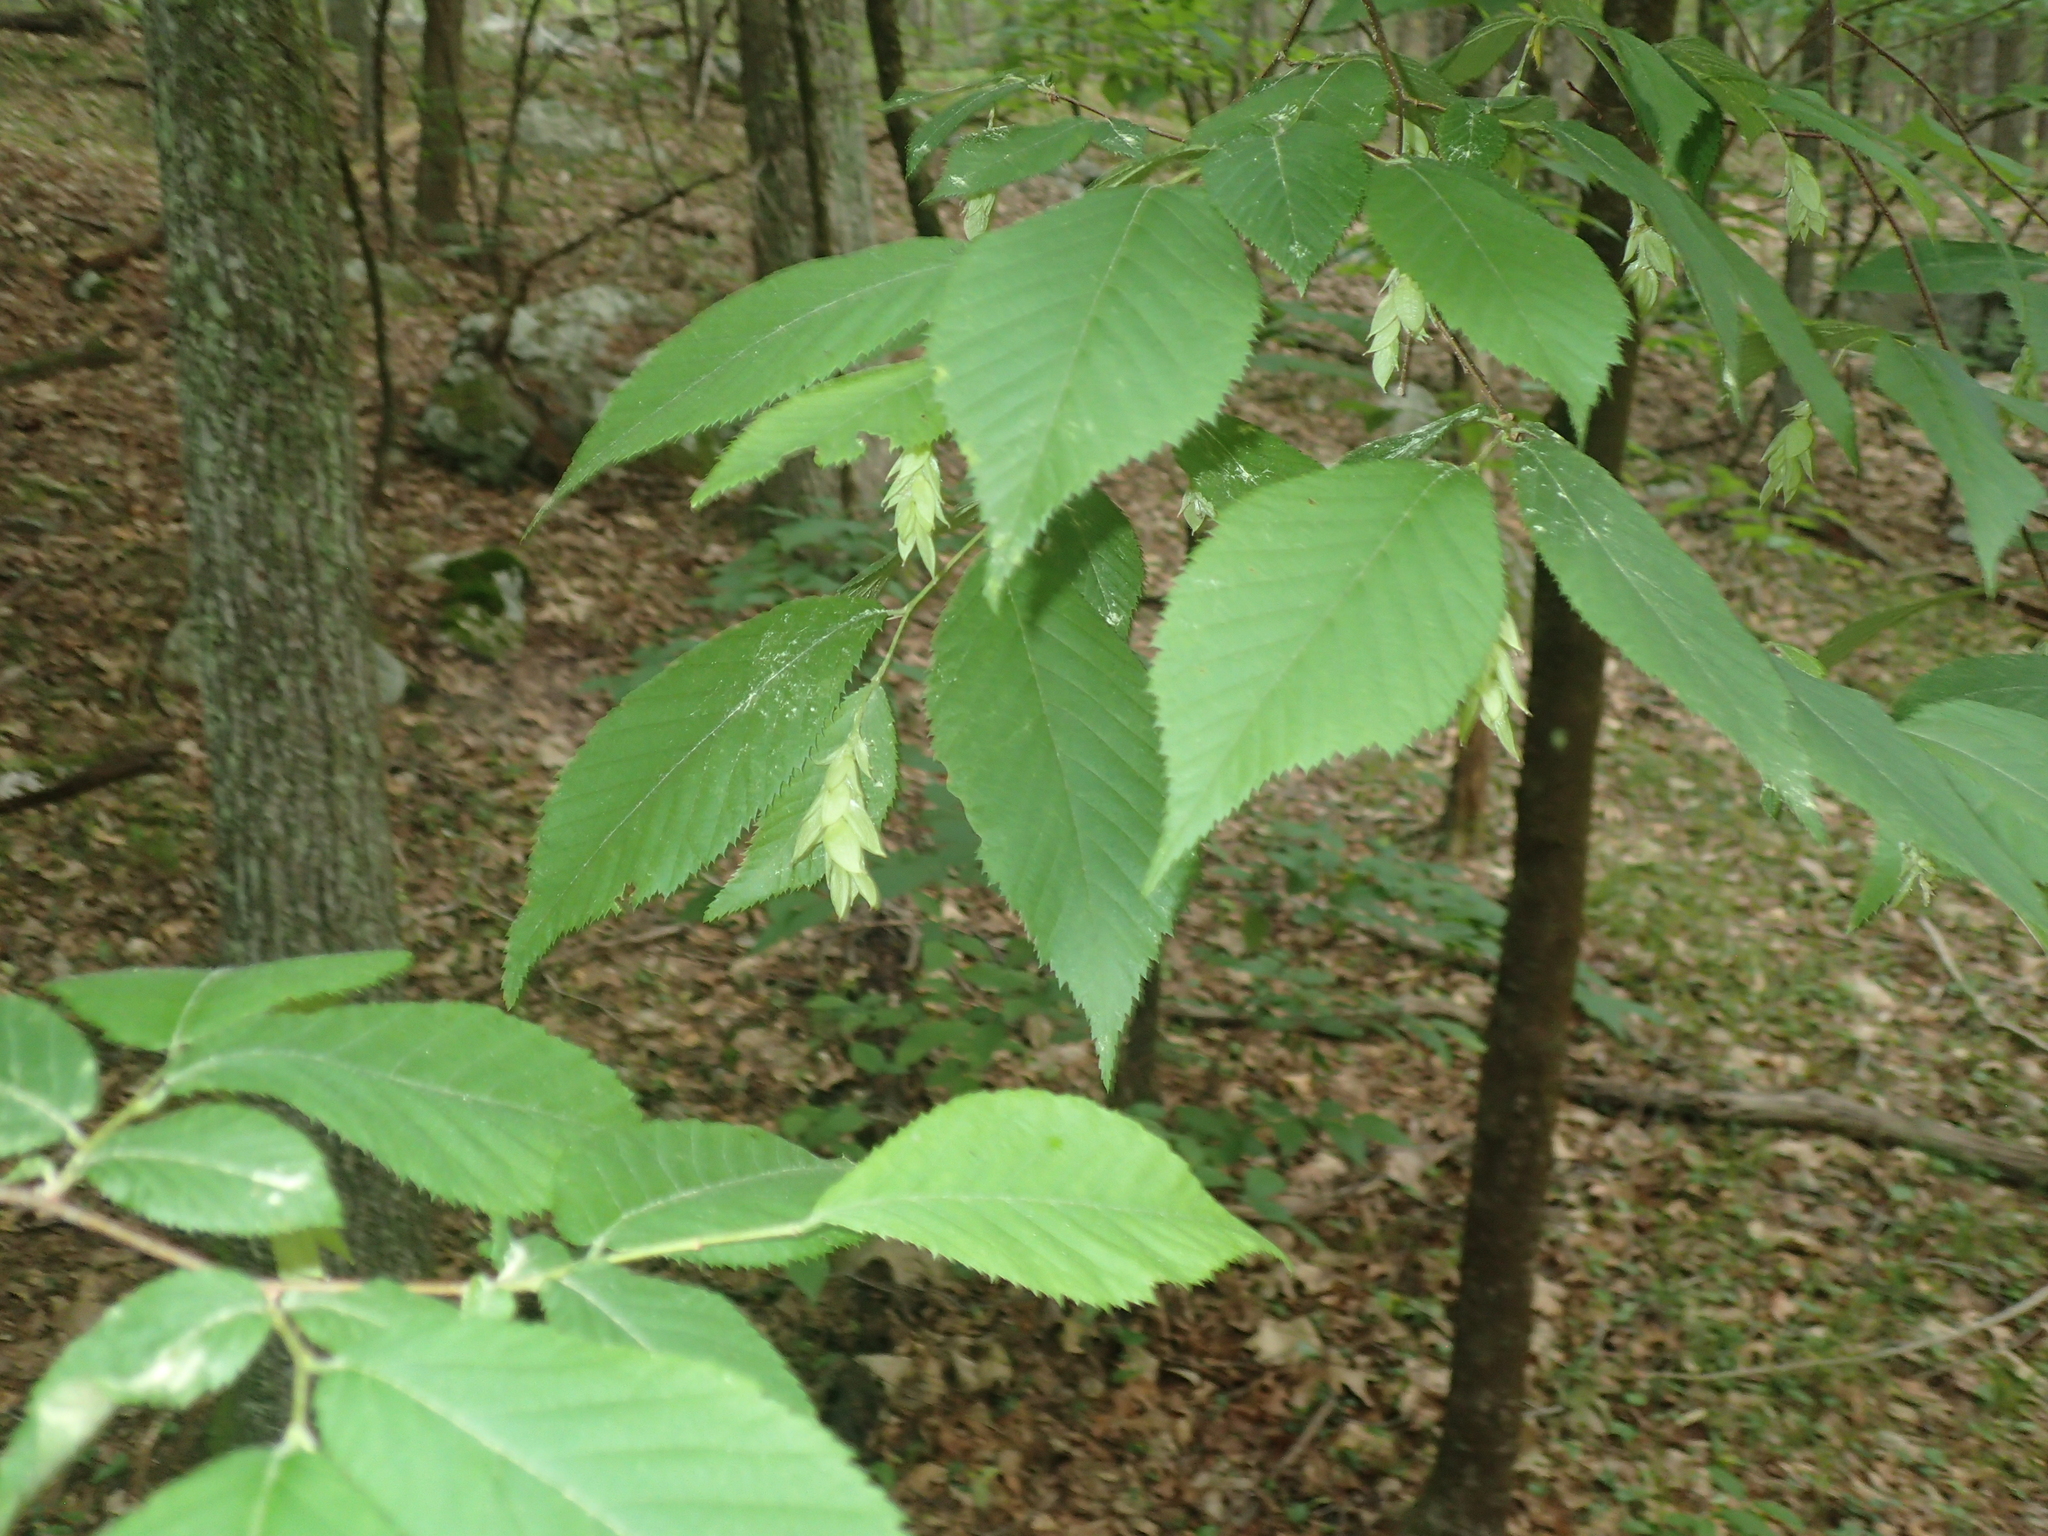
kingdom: Plantae
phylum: Tracheophyta
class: Magnoliopsida
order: Fagales
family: Betulaceae
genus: Ostrya
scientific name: Ostrya virginiana
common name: Ironwood
